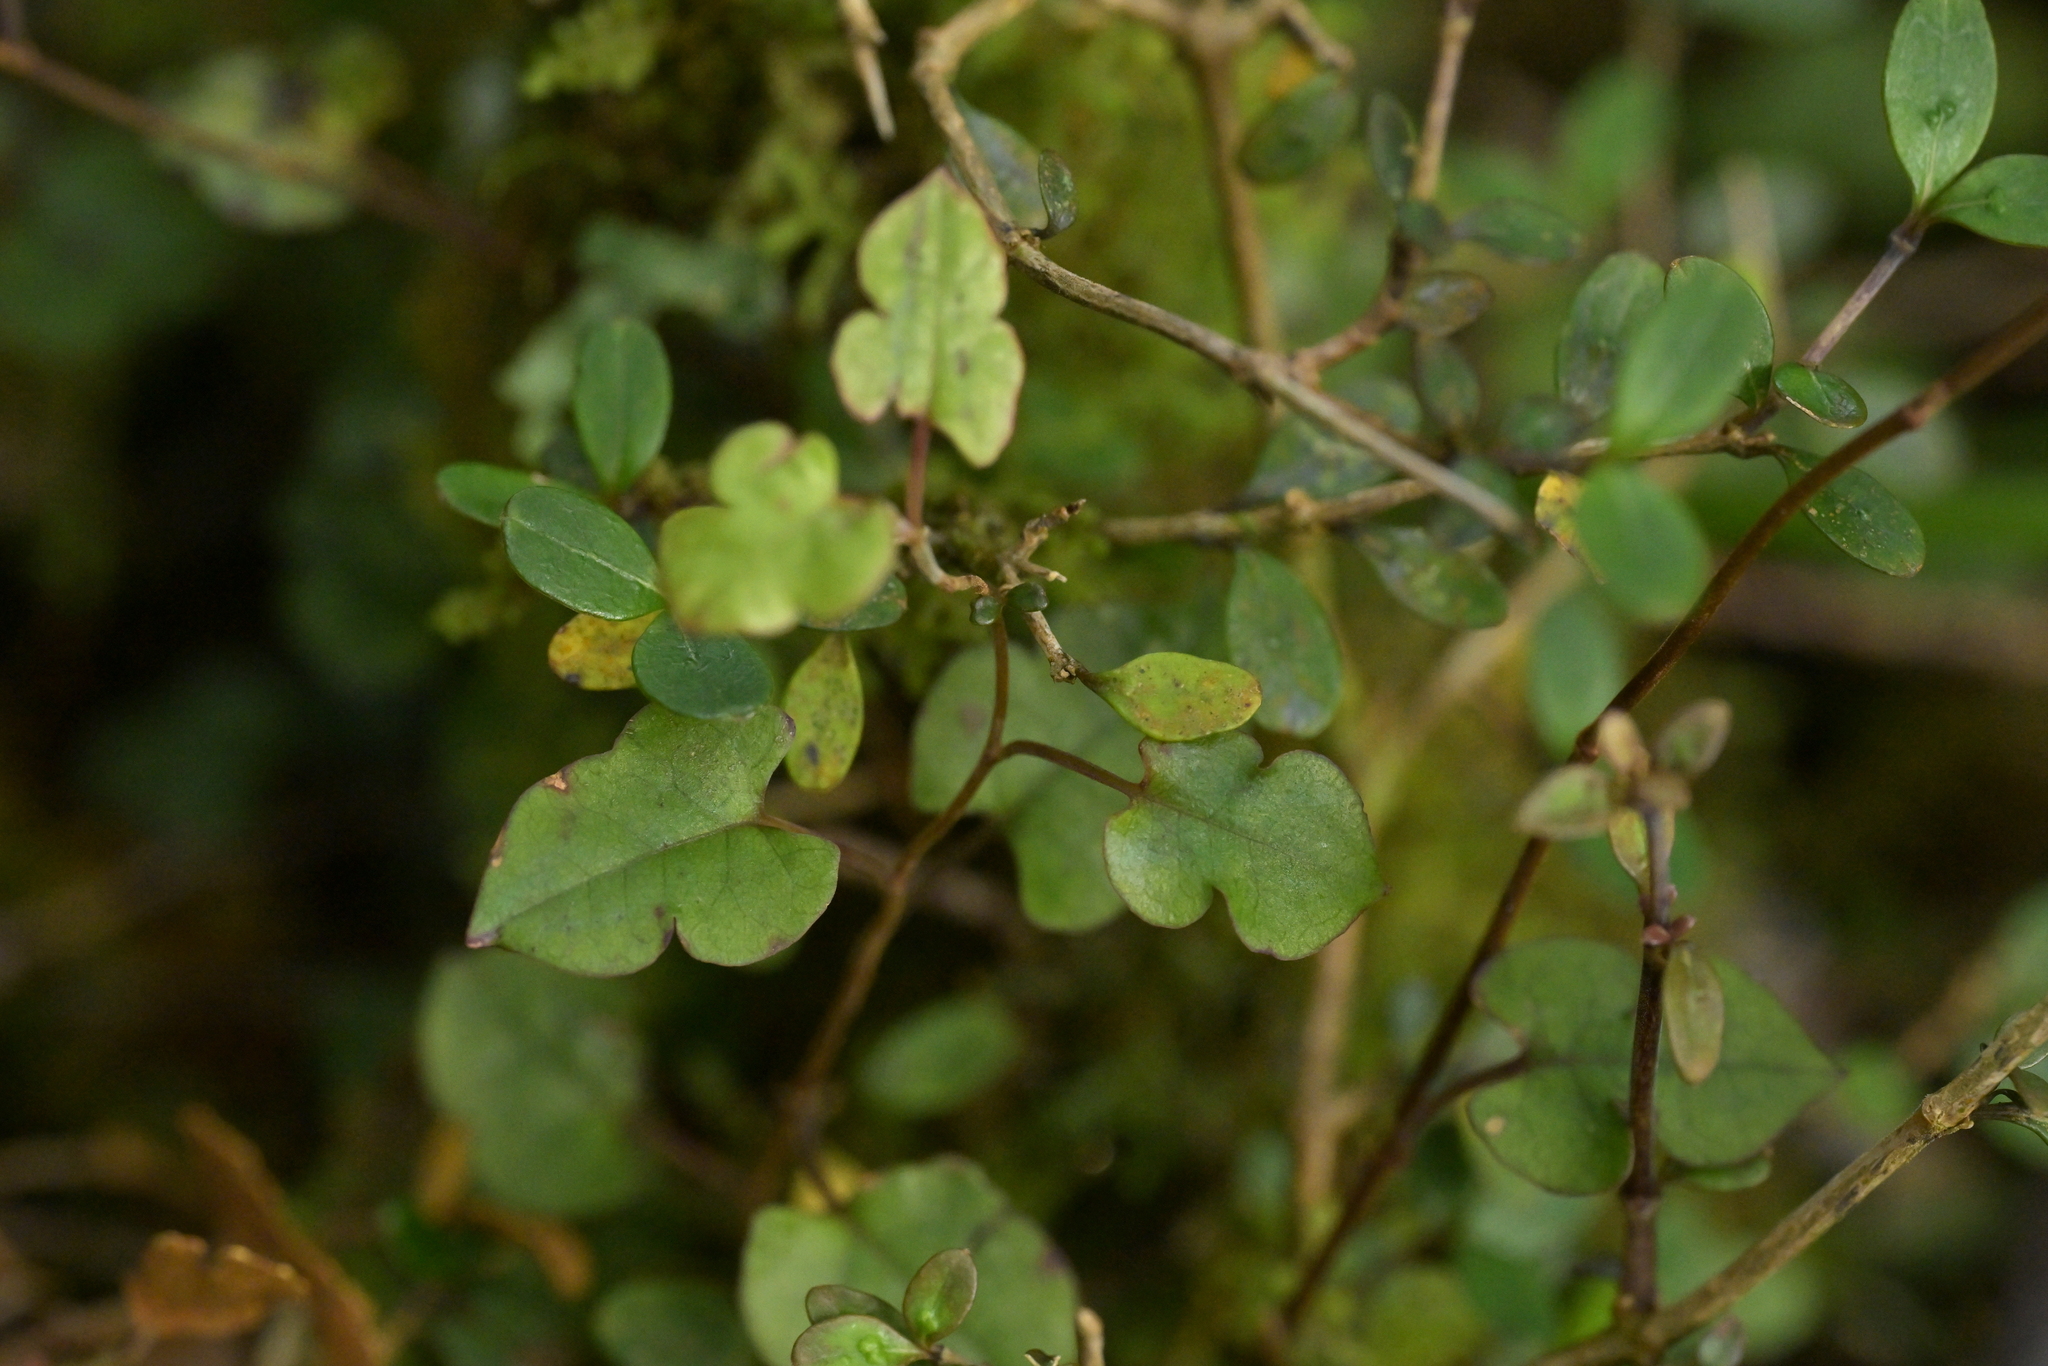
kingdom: Plantae
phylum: Tracheophyta
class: Magnoliopsida
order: Caryophyllales
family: Polygonaceae
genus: Muehlenbeckia
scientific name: Muehlenbeckia australis
